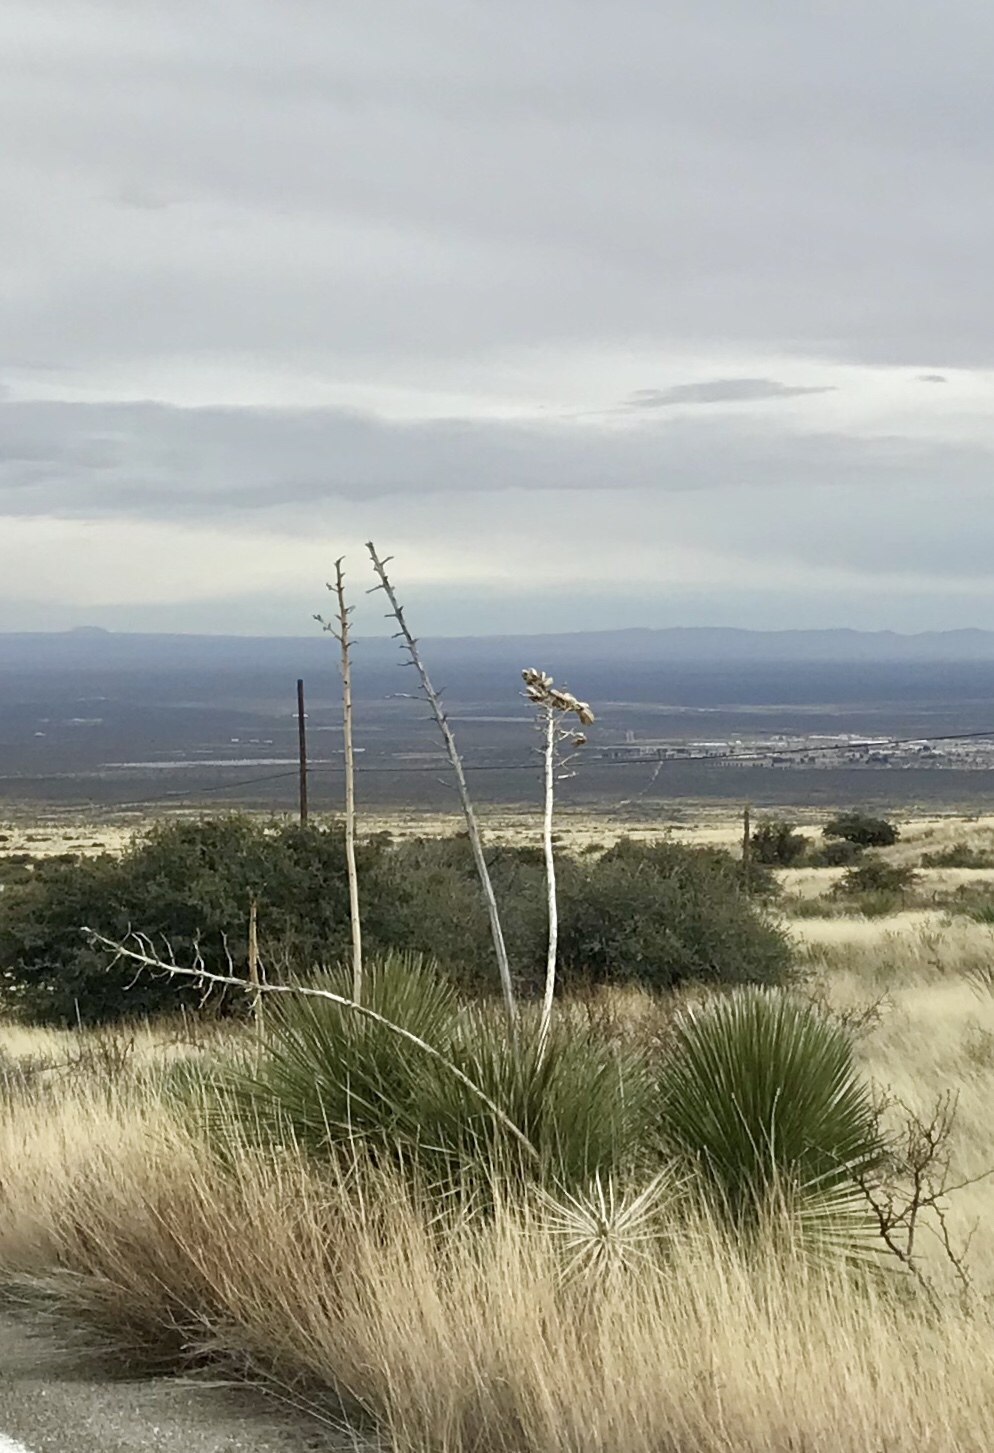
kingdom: Plantae
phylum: Tracheophyta
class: Liliopsida
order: Asparagales
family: Asparagaceae
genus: Yucca
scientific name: Yucca elata
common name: Palmella
